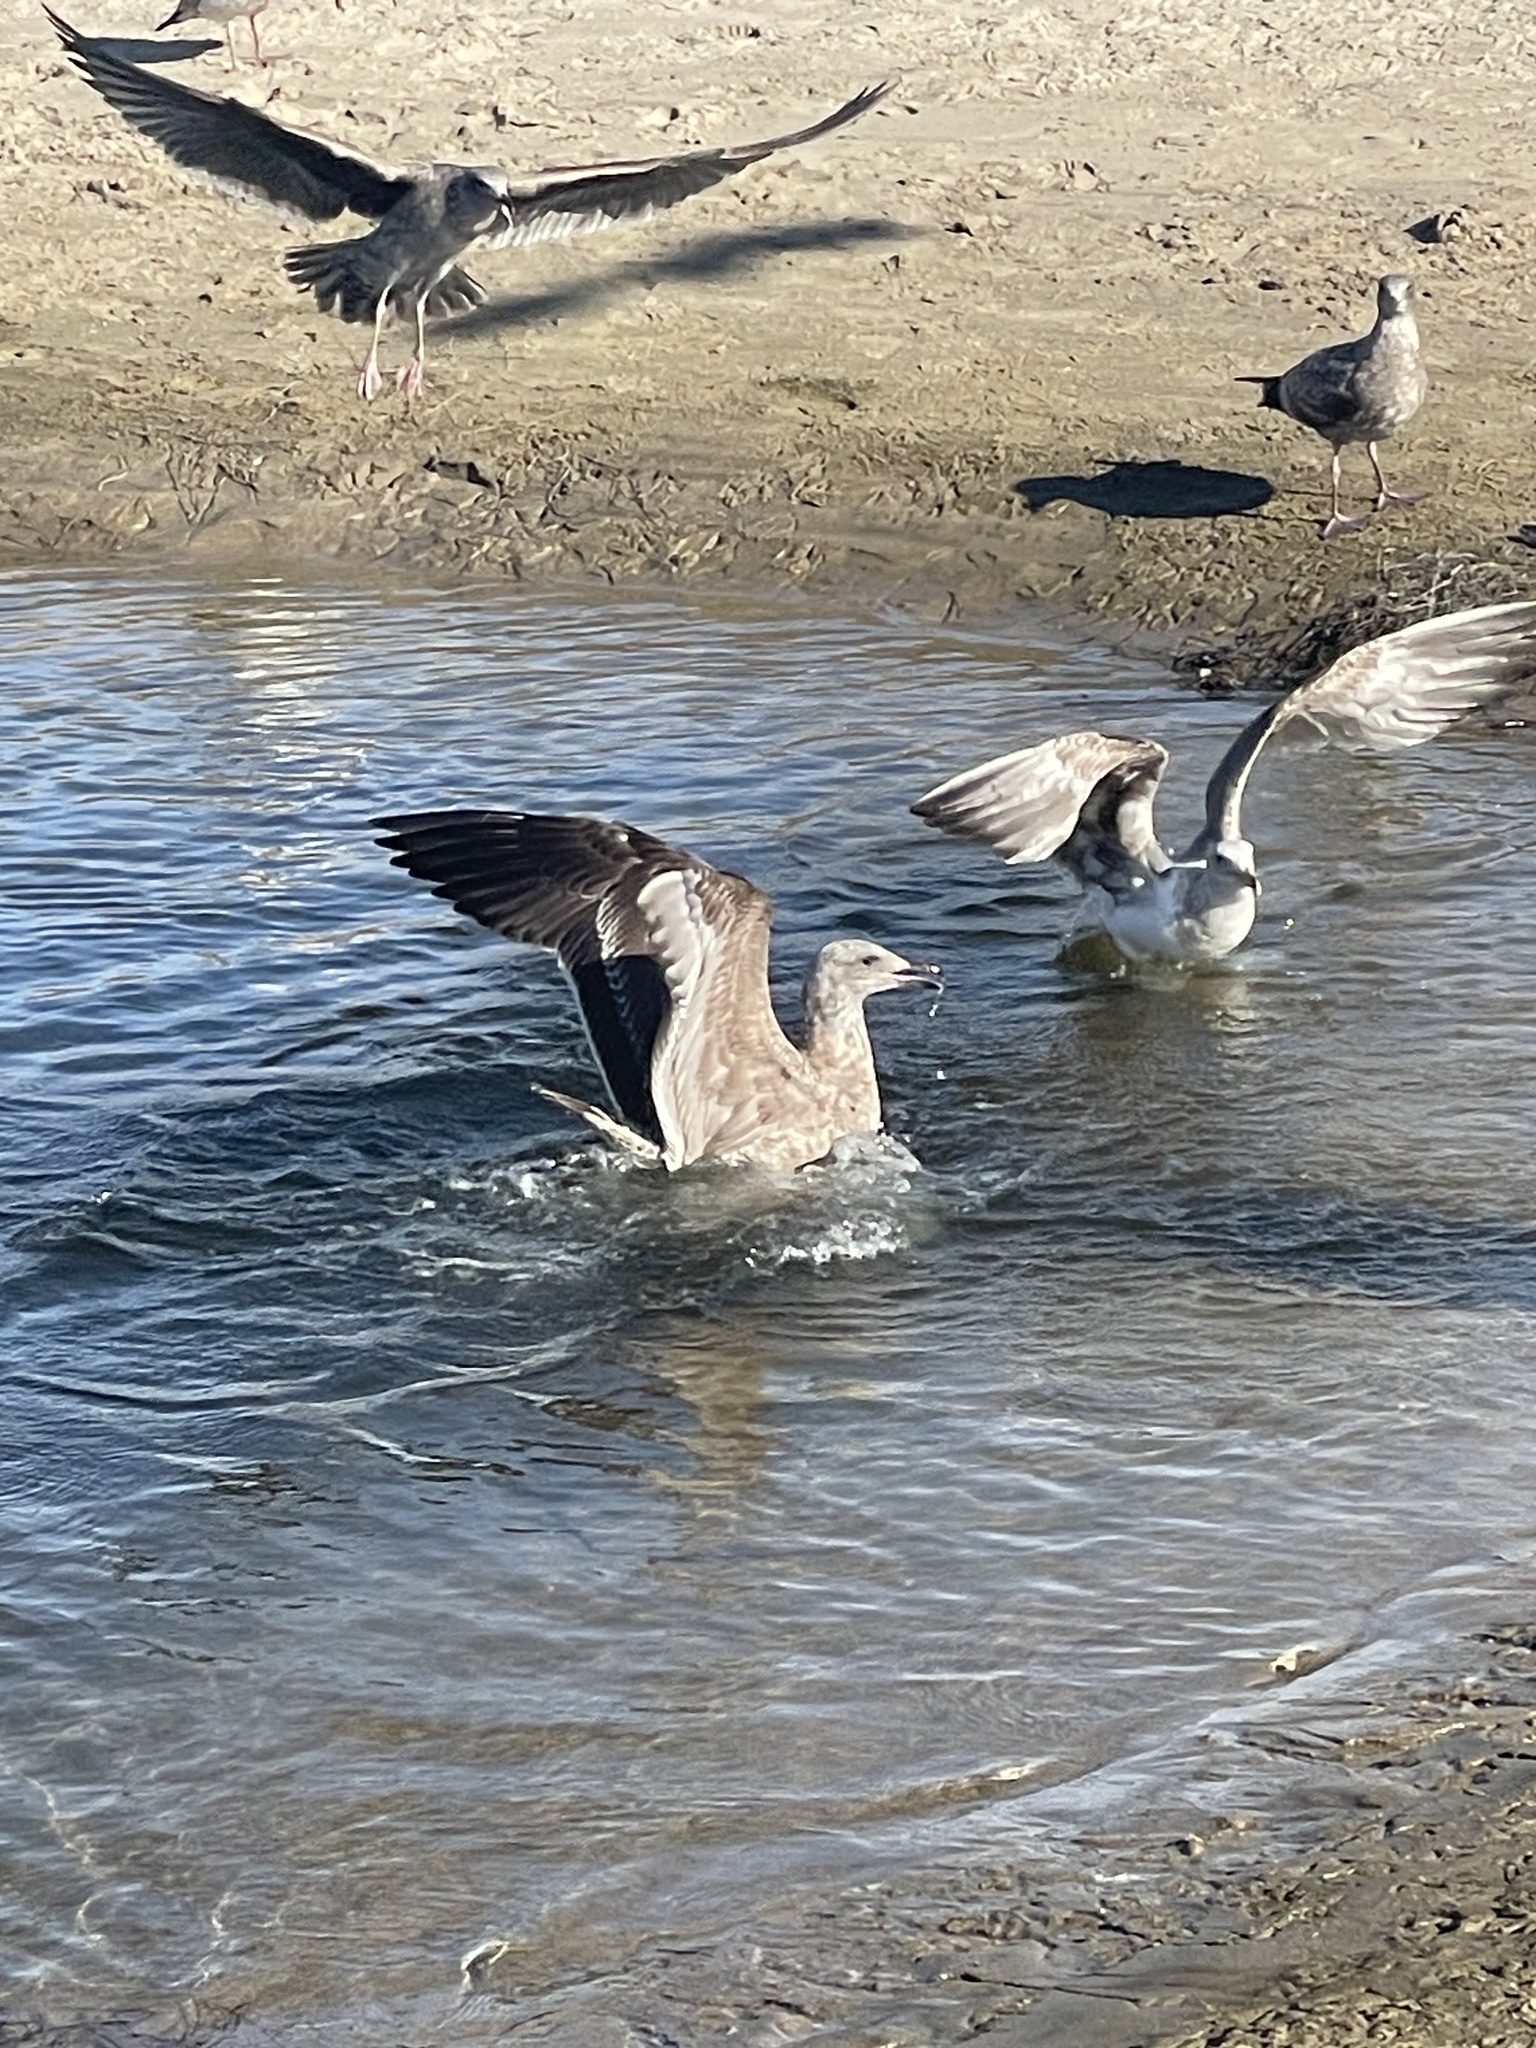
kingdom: Animalia
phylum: Chordata
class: Aves
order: Charadriiformes
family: Laridae
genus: Larus
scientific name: Larus occidentalis
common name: Western gull
